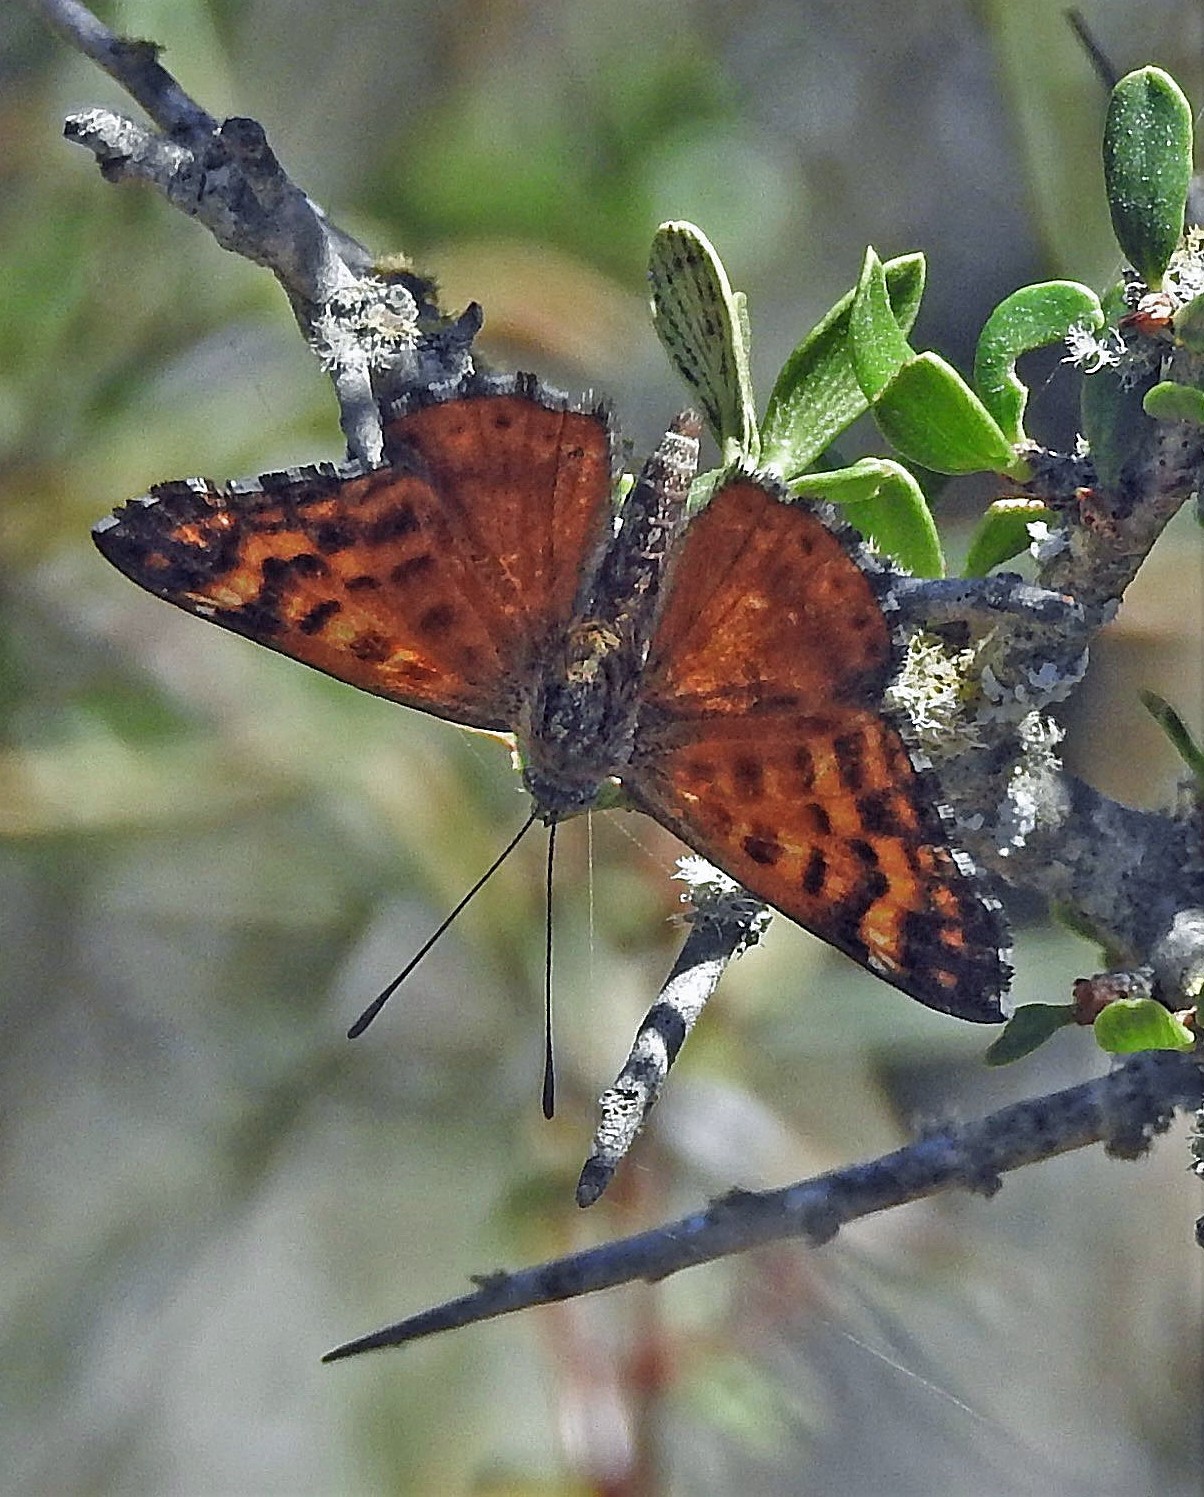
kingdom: Animalia
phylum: Arthropoda
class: Insecta
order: Lepidoptera
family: Lycaenidae
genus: Aricoris
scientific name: Aricoris chilensis
